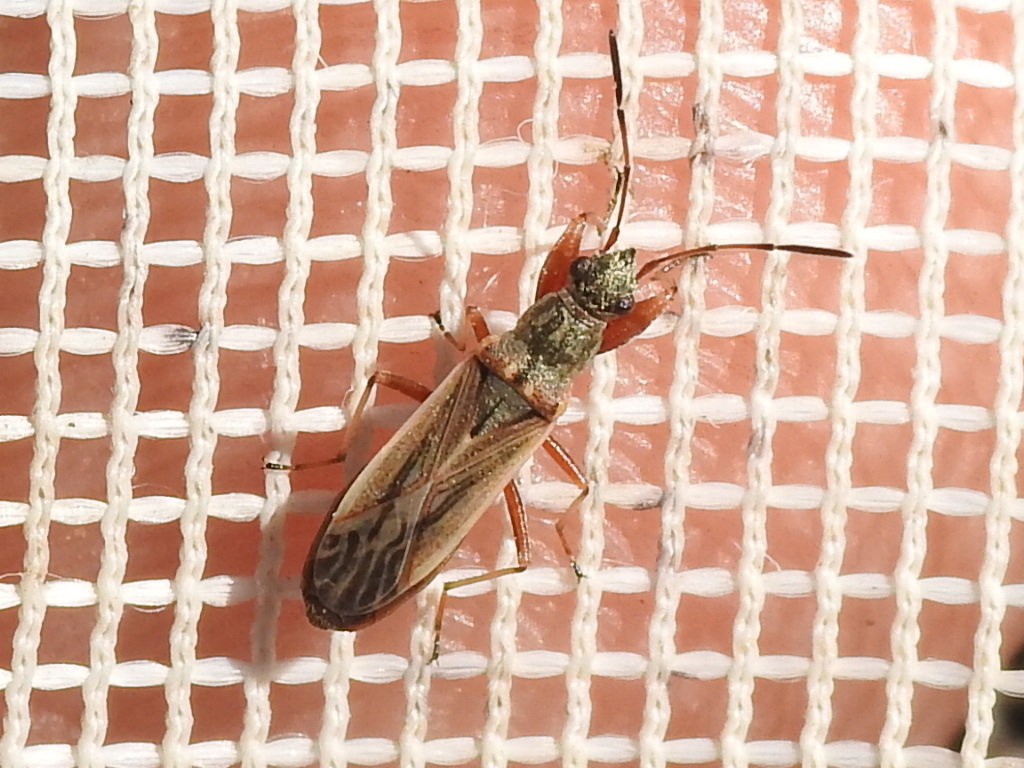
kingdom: Animalia
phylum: Arthropoda
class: Insecta
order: Hemiptera
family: Rhyparochromidae
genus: Paromius
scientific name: Paromius longulus
